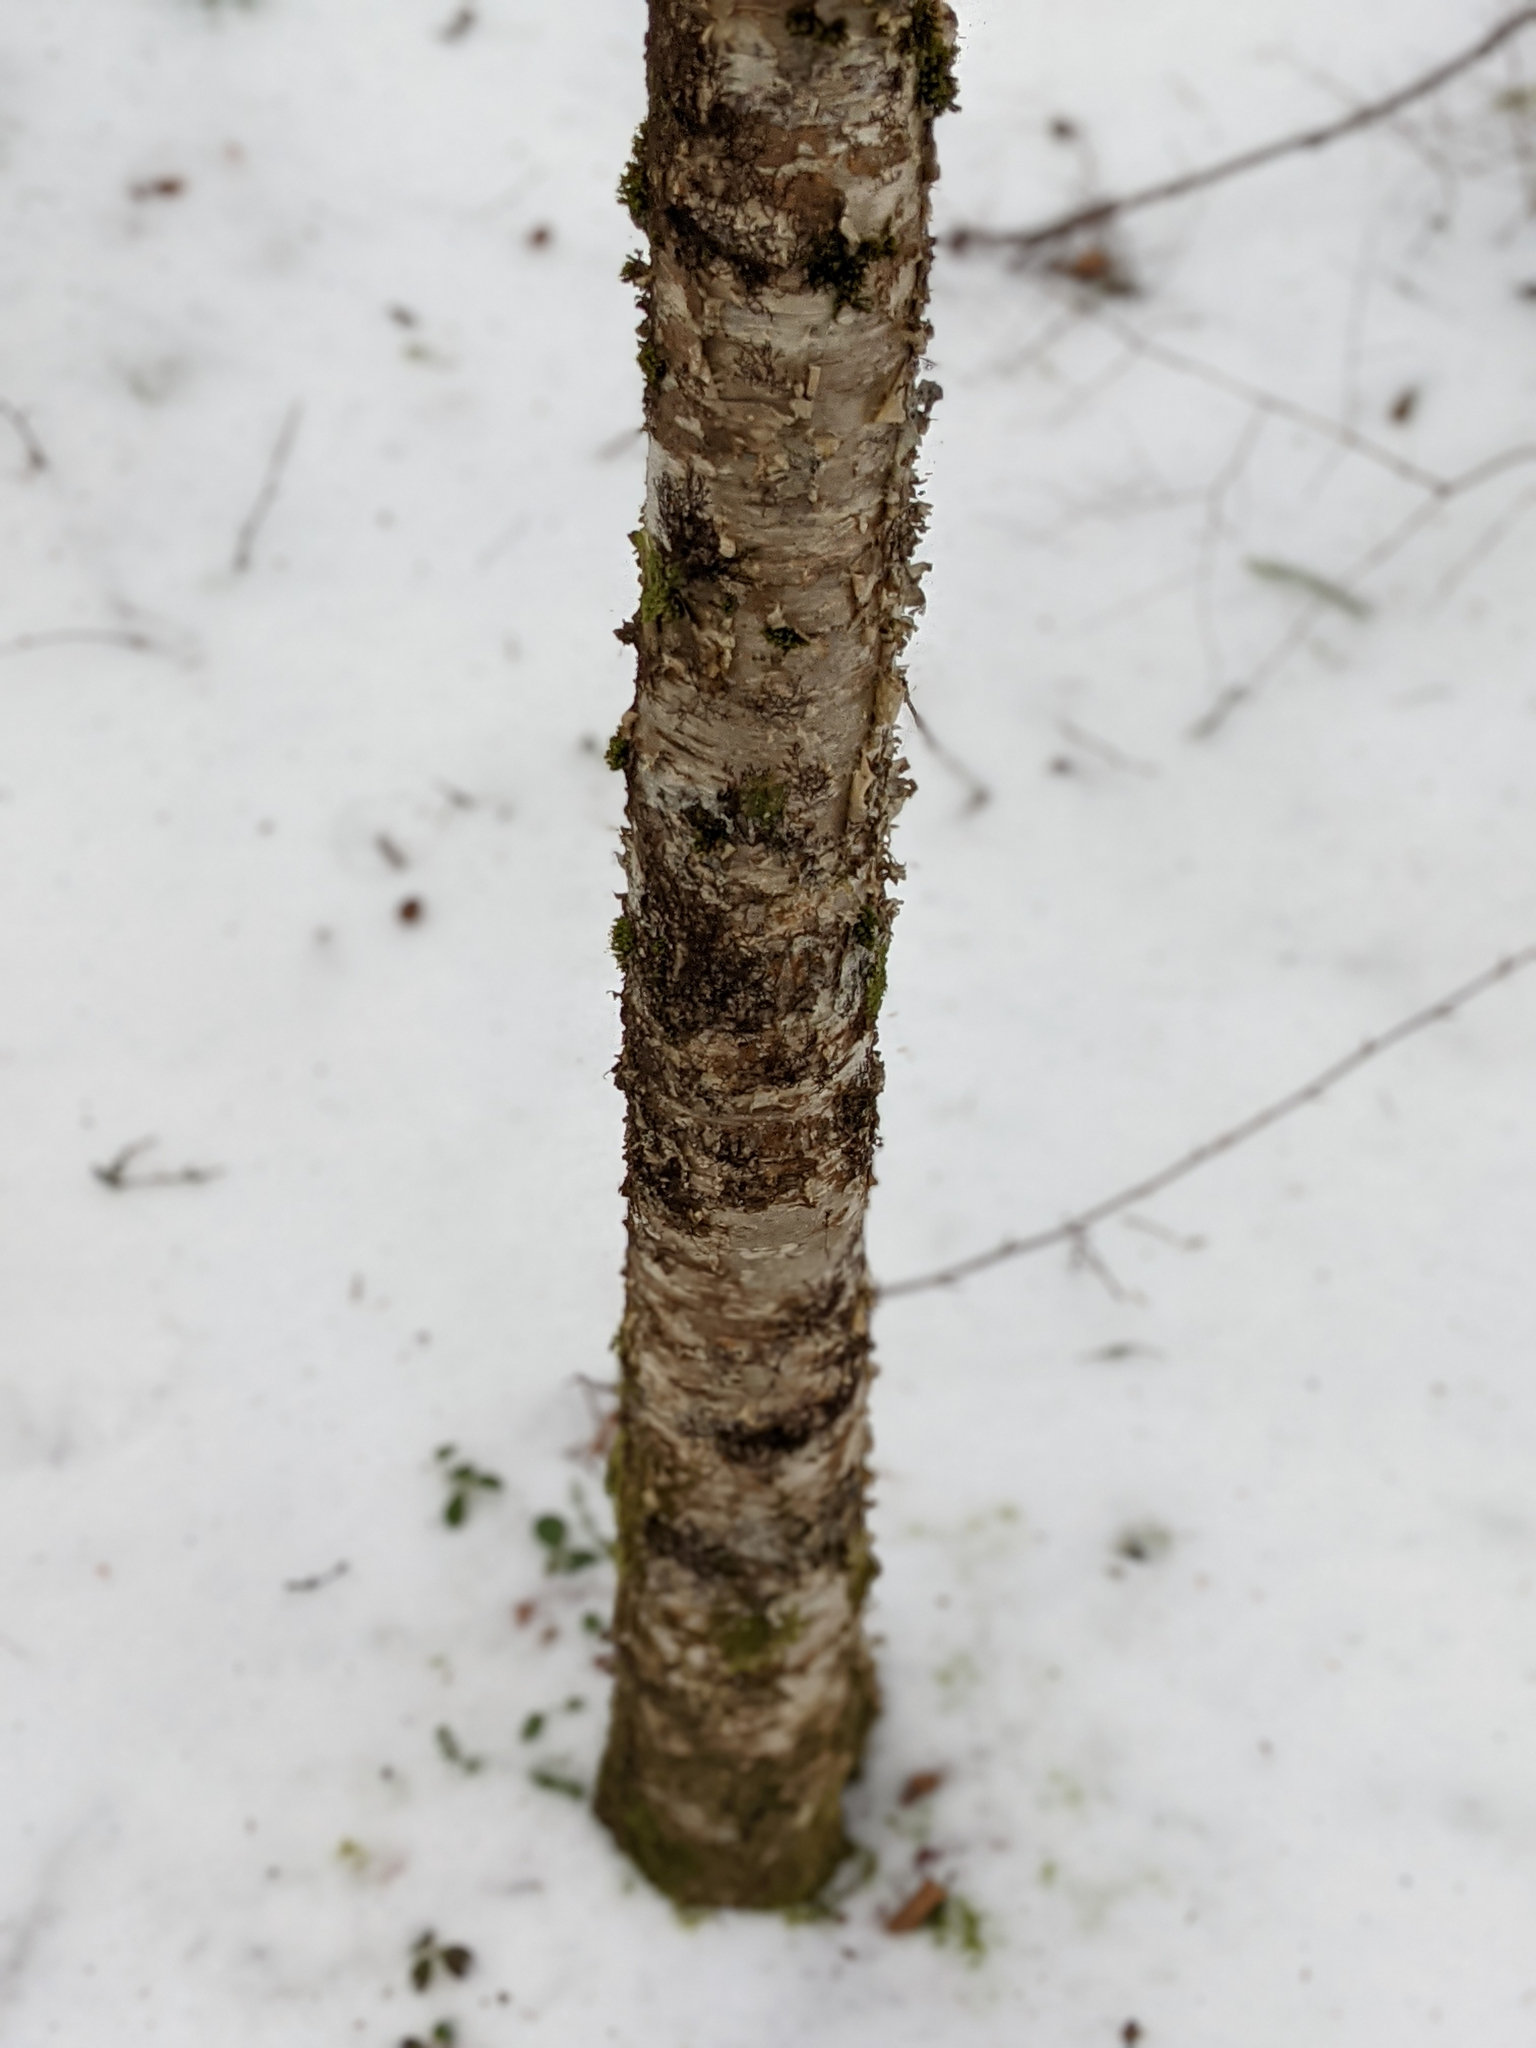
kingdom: Plantae
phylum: Tracheophyta
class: Magnoliopsida
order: Fagales
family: Betulaceae
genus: Betula
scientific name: Betula alleghaniensis
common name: Yellow birch
